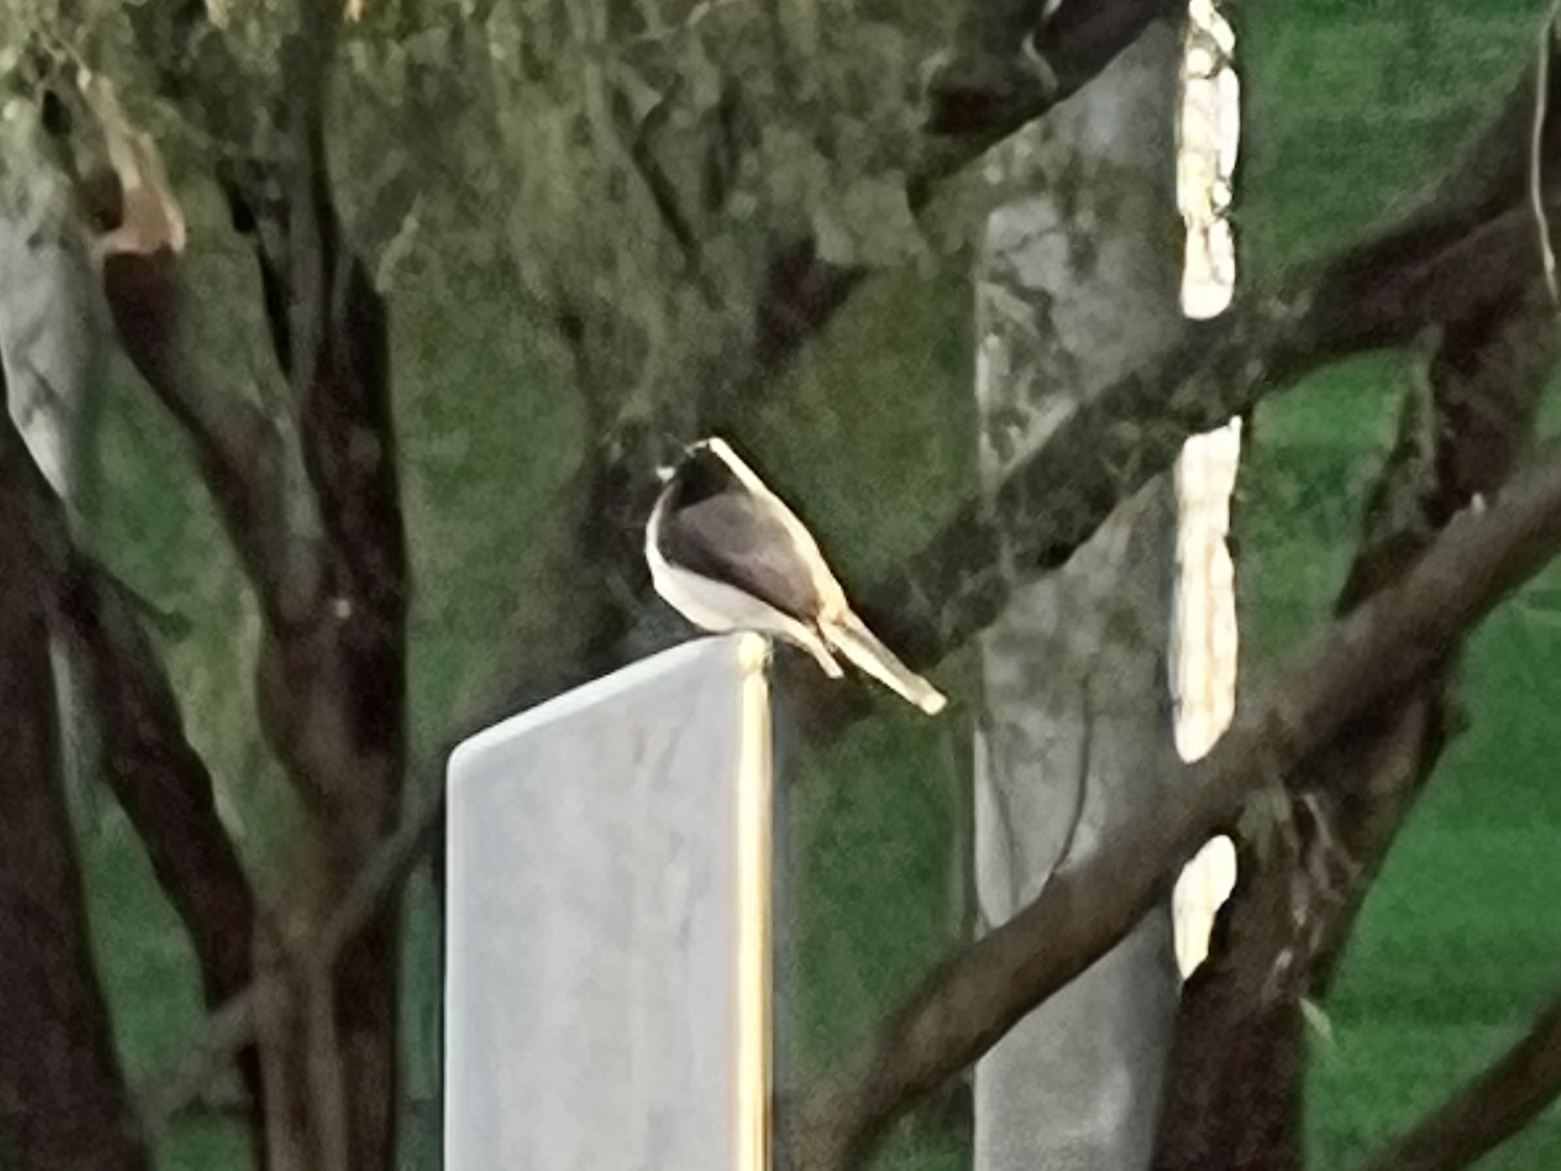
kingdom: Animalia
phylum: Chordata
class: Aves
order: Passeriformes
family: Tyrannidae
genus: Sayornis
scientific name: Sayornis nigricans
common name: Black phoebe
